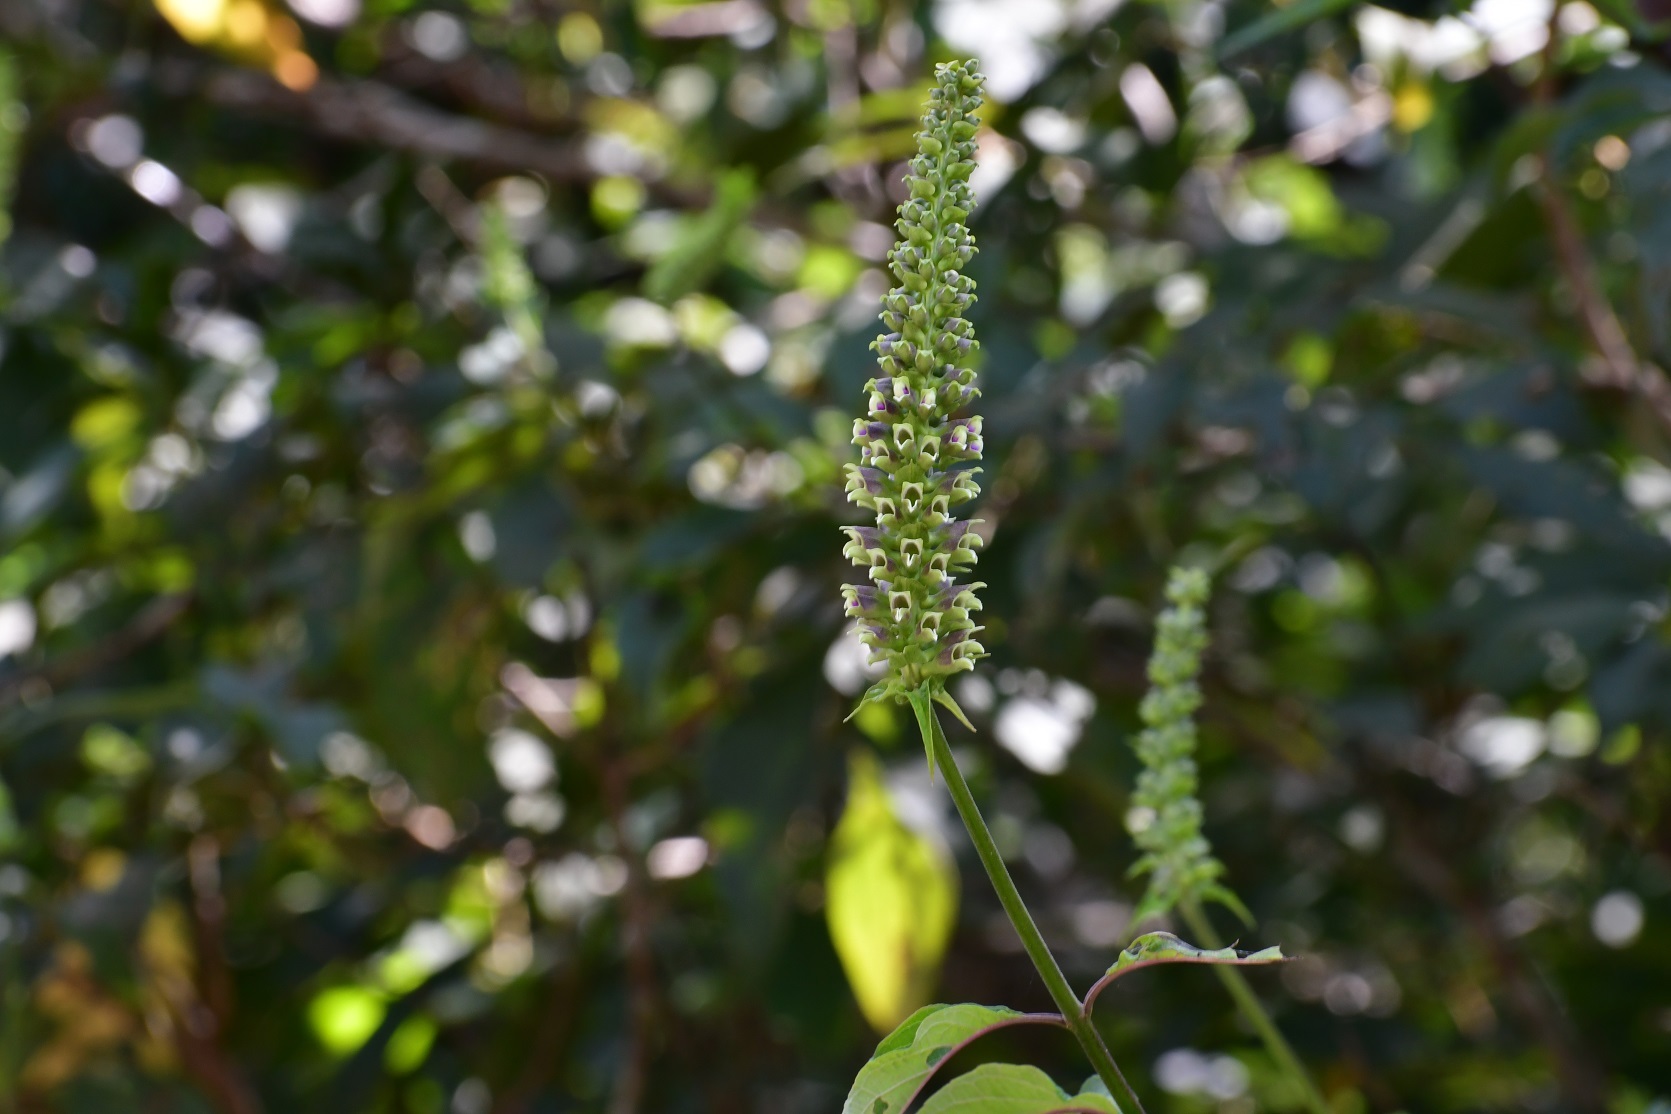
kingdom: Plantae
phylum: Tracheophyta
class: Magnoliopsida
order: Lamiales
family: Lamiaceae
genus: Catoferia
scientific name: Catoferia chiapensis
